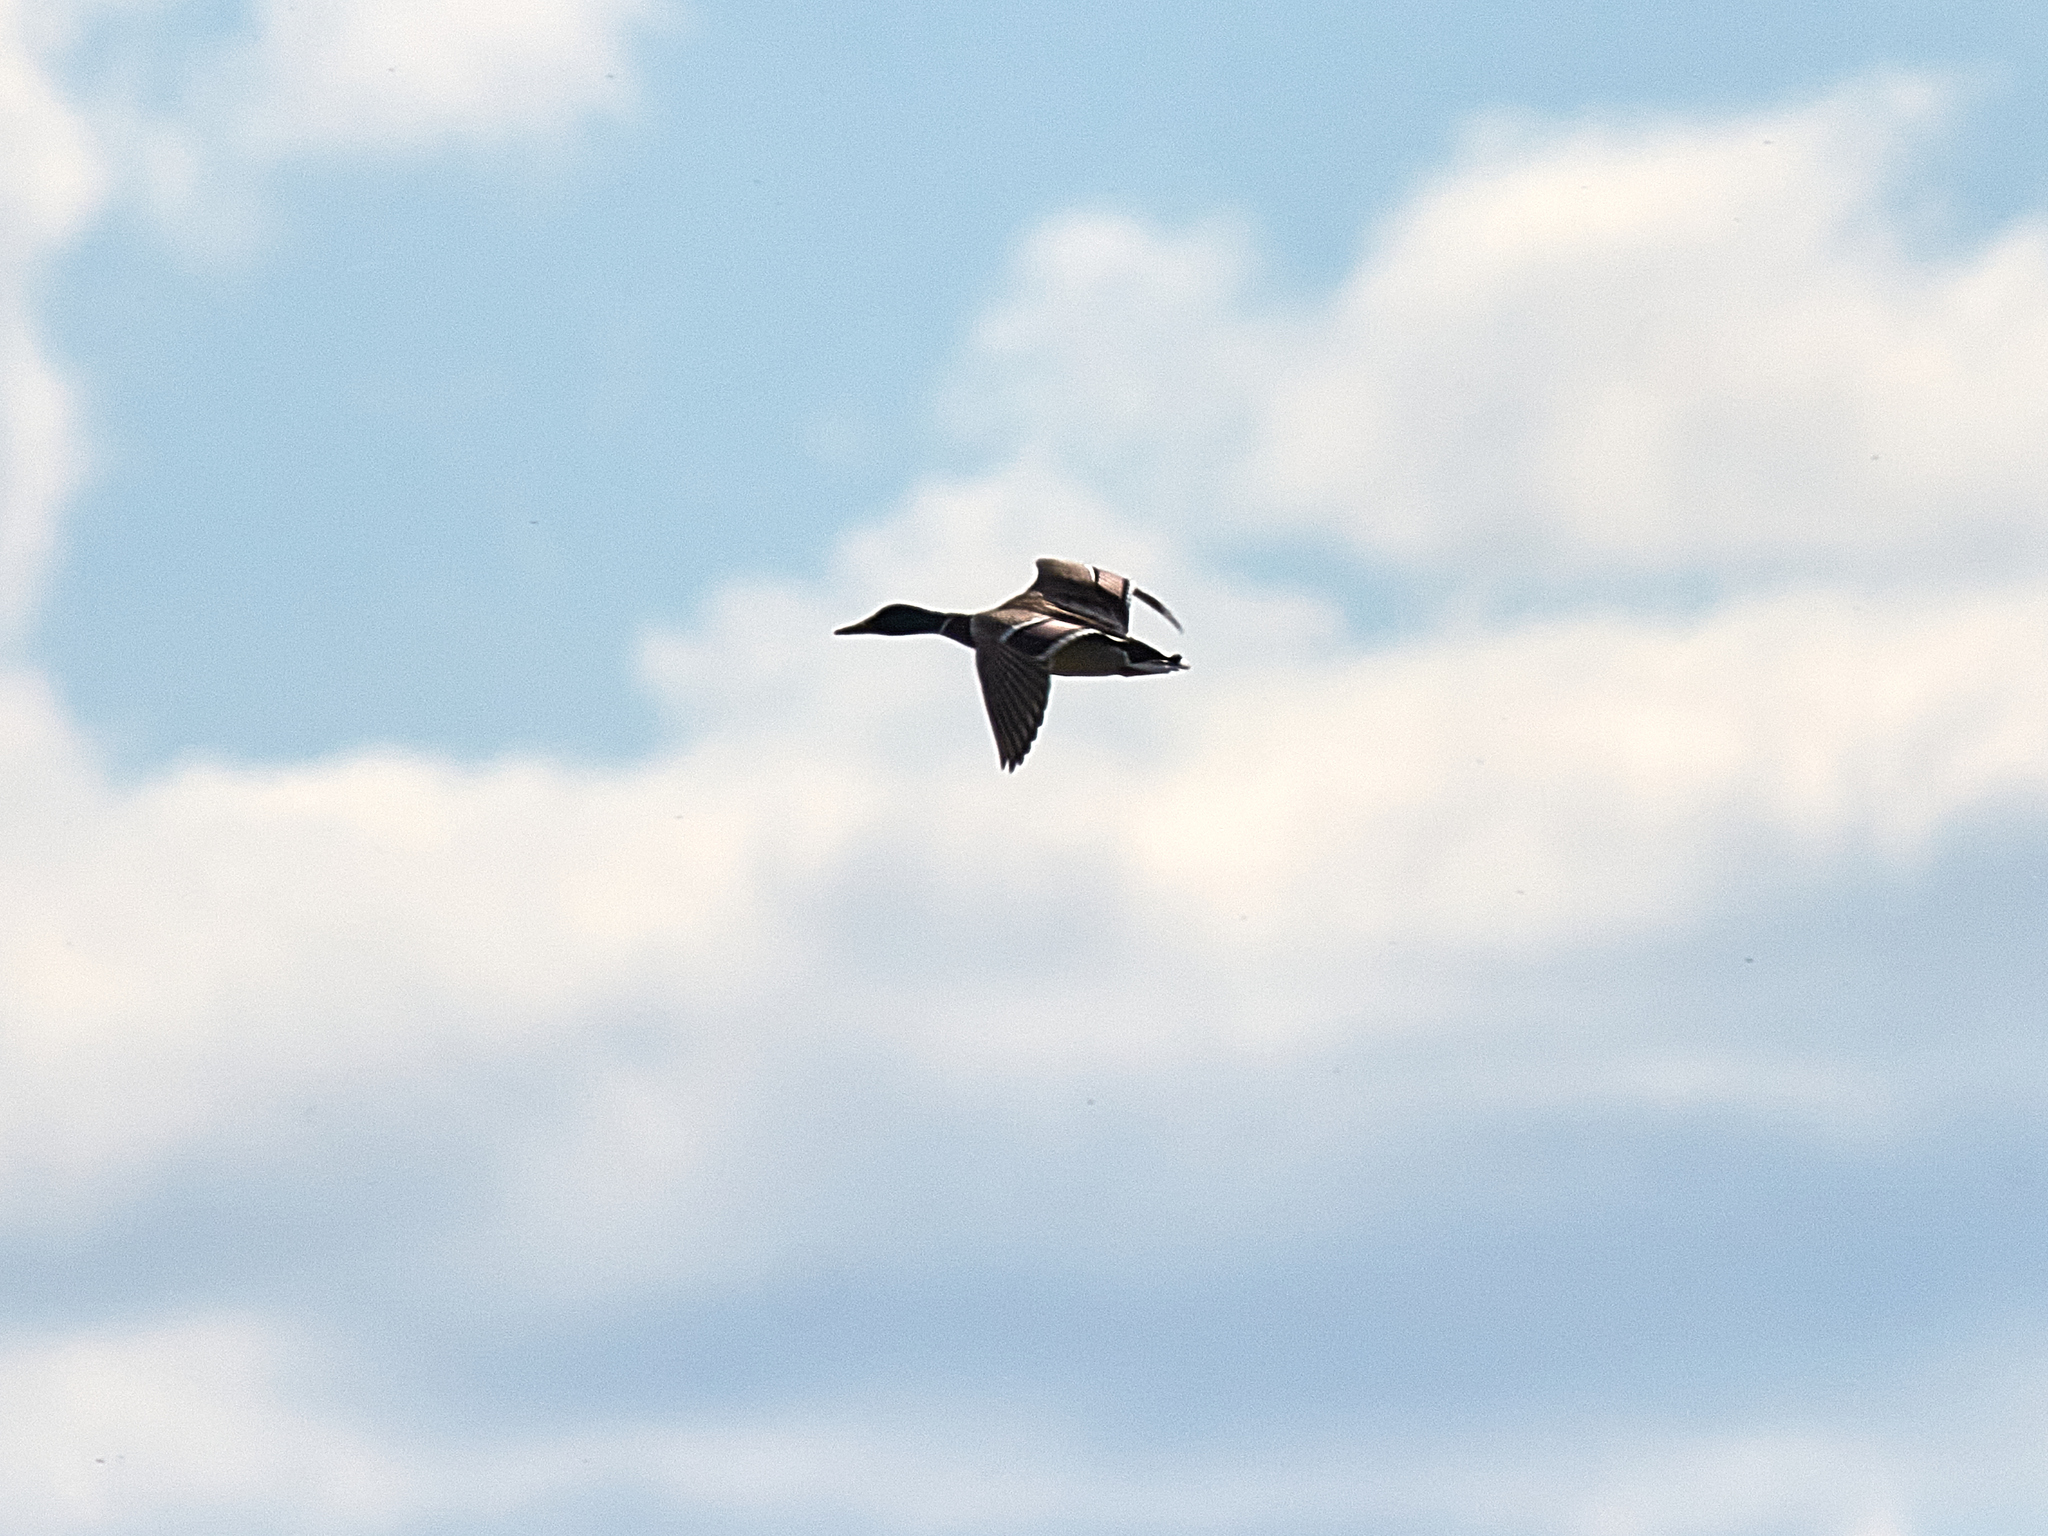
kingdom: Animalia
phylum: Chordata
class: Aves
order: Anseriformes
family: Anatidae
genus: Anas
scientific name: Anas platyrhynchos
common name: Mallard
